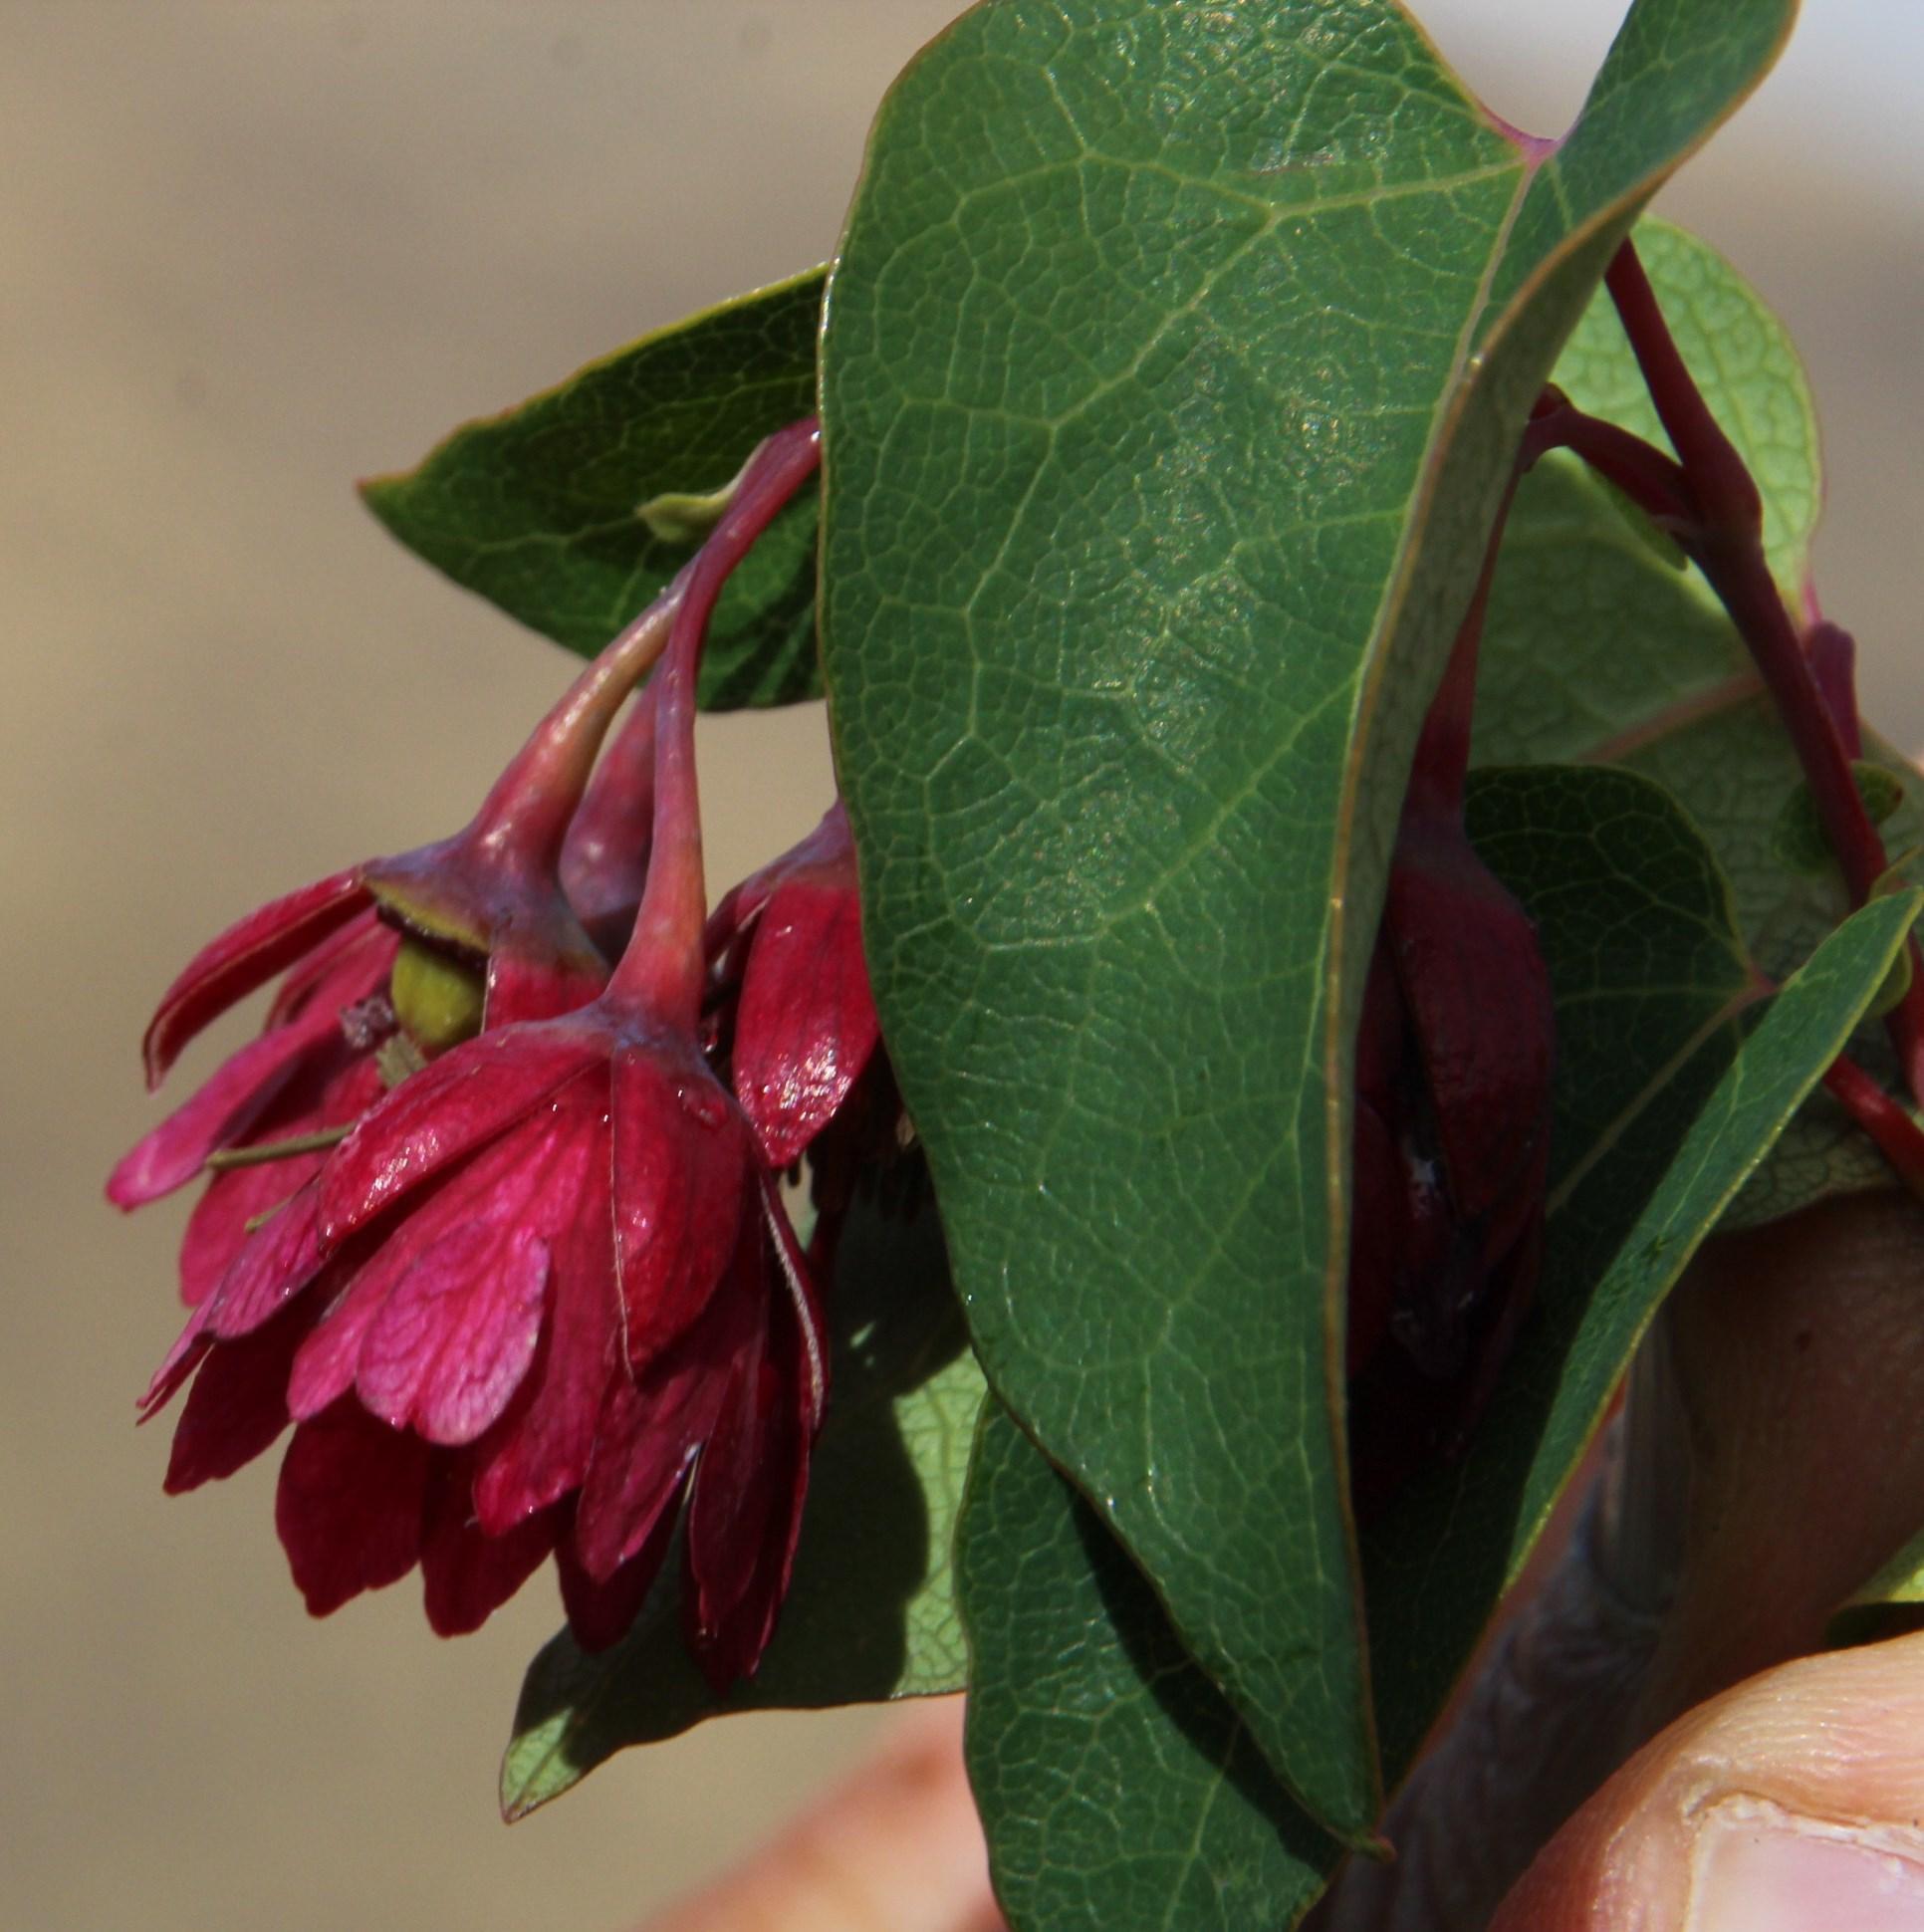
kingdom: Plantae
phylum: Tracheophyta
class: Magnoliopsida
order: Oxalidales
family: Elaeocarpaceae
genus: Vallea
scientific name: Vallea stipularis
